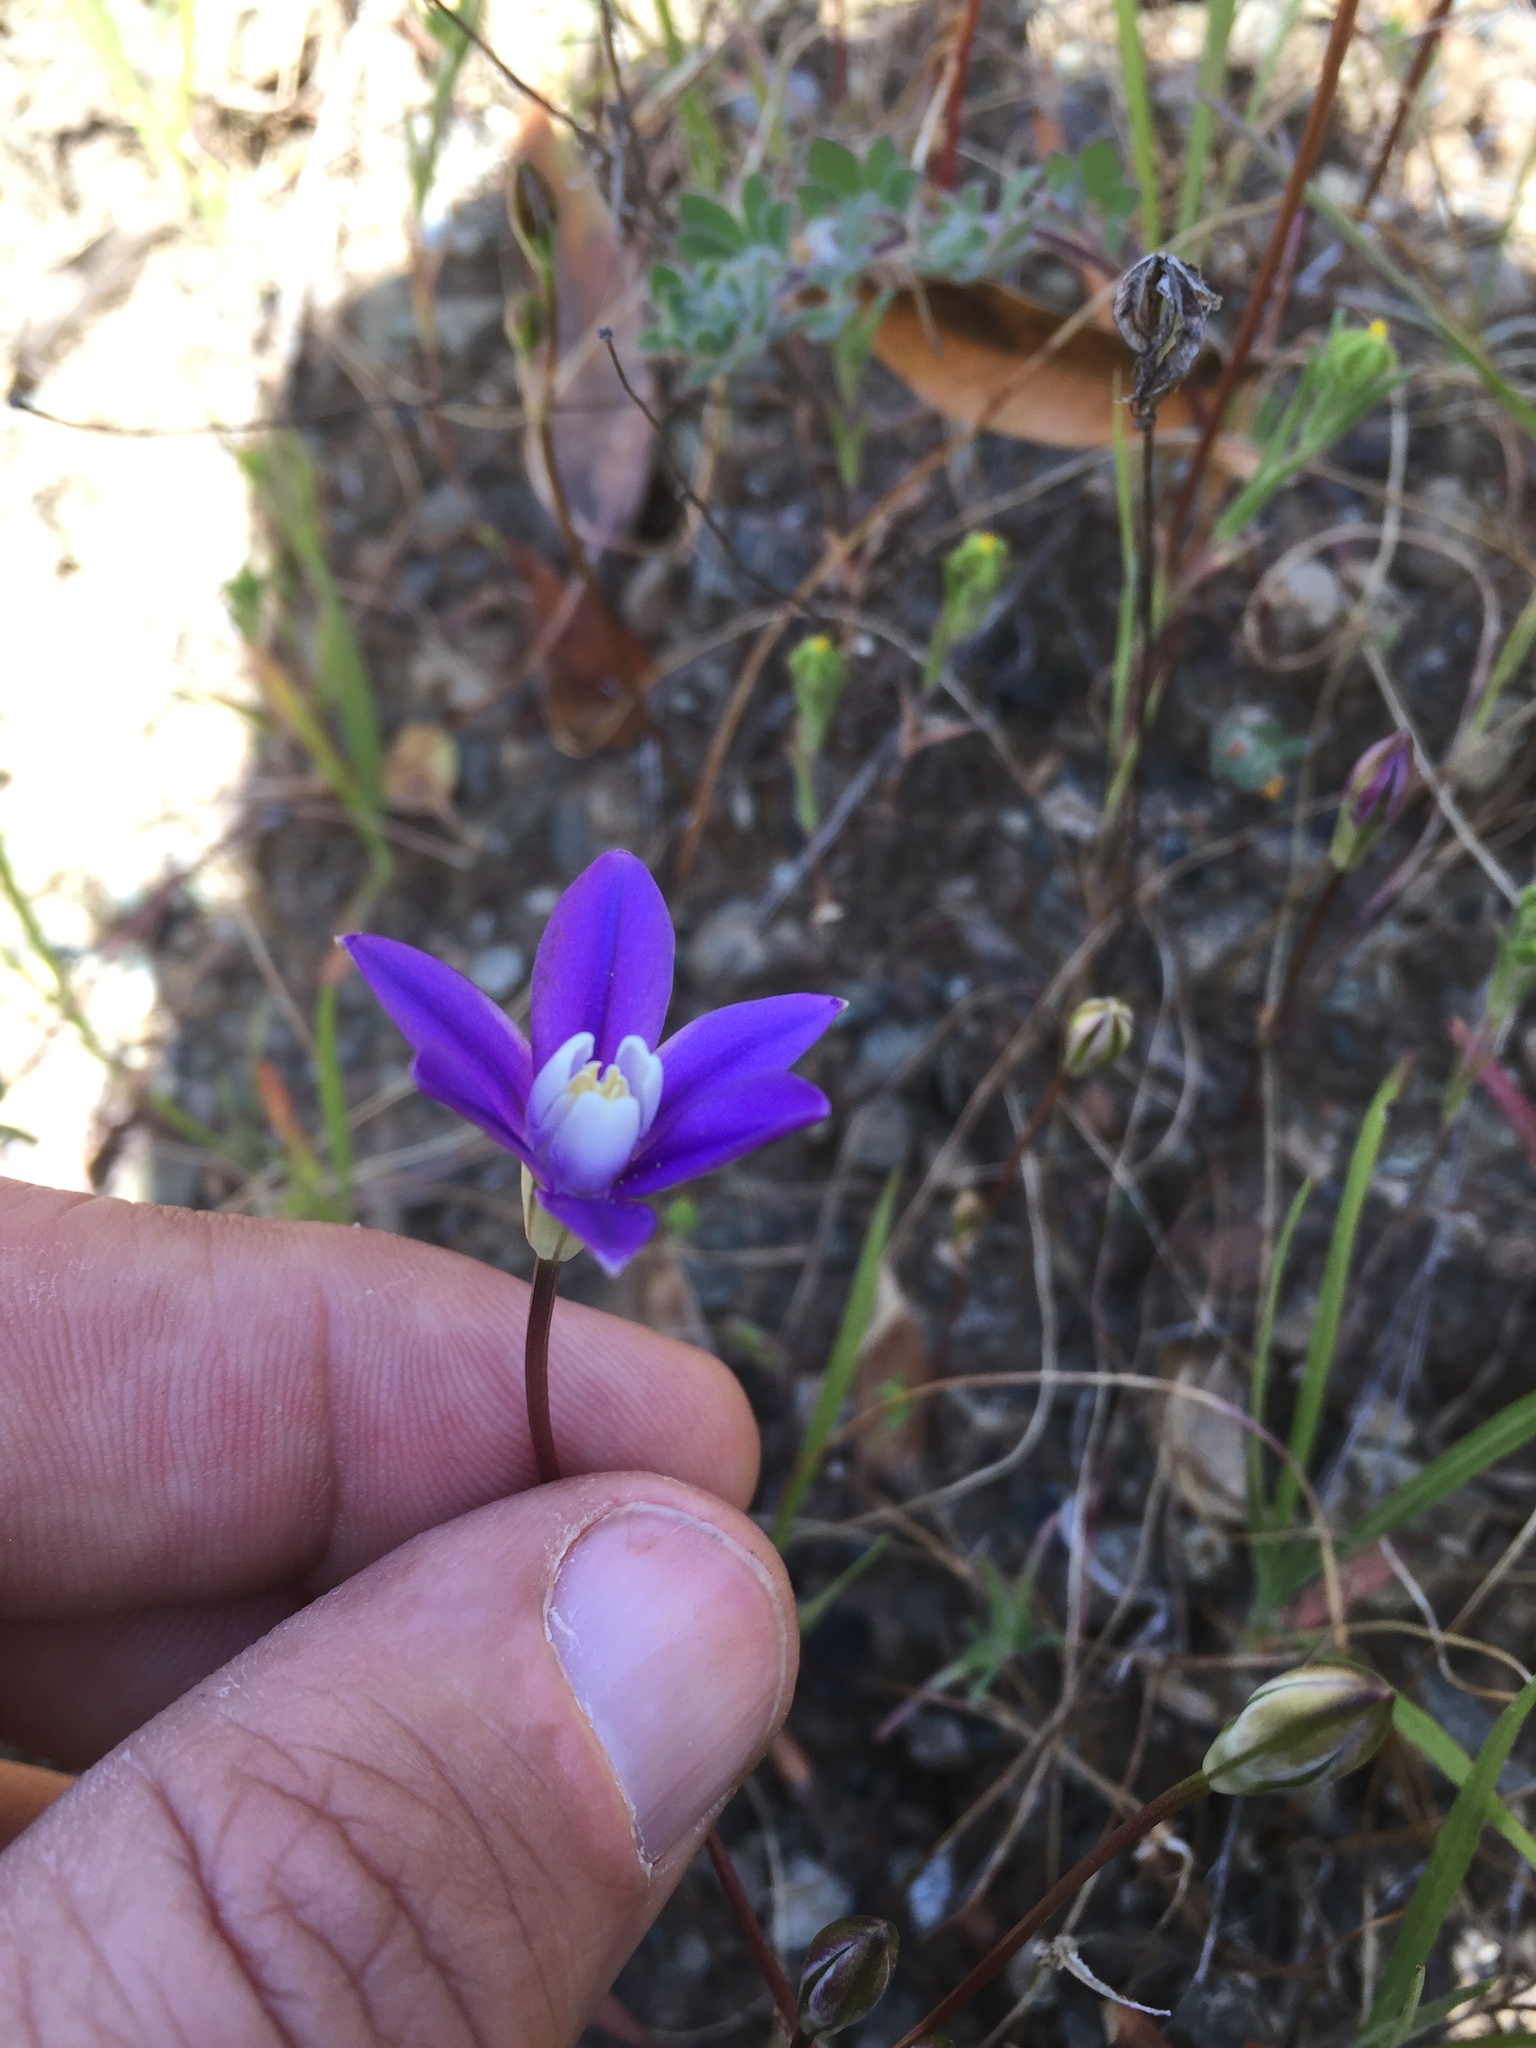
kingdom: Plantae
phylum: Tracheophyta
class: Liliopsida
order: Asparagales
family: Asparagaceae
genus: Brodiaea
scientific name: Brodiaea stellaris
